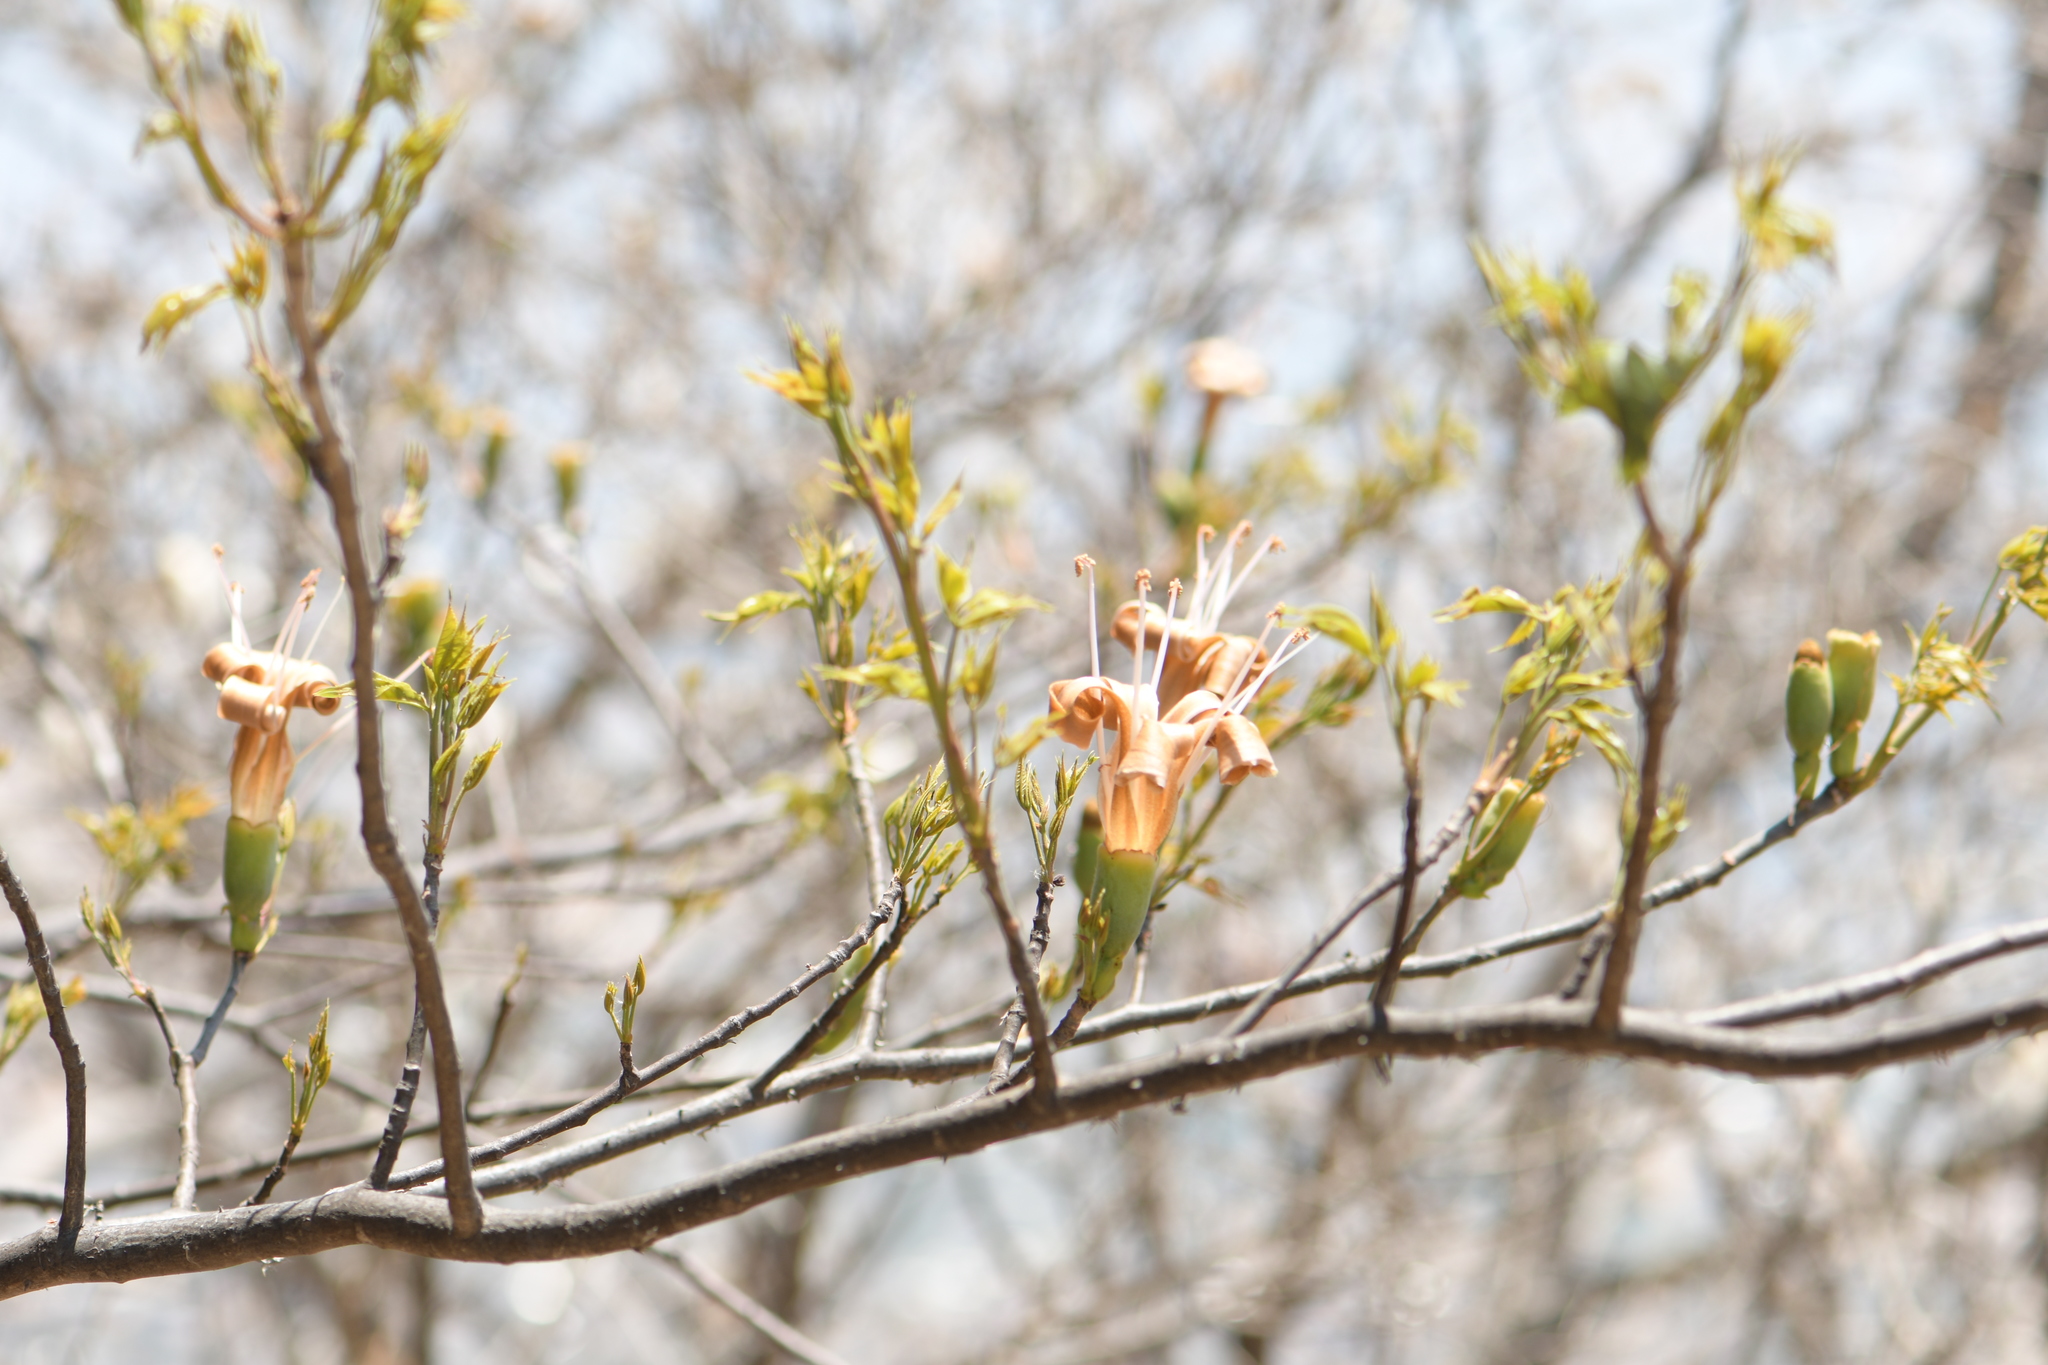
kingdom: Plantae
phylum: Tracheophyta
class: Magnoliopsida
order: Malvales
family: Malvaceae
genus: Ceiba
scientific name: Ceiba aesculifolia
